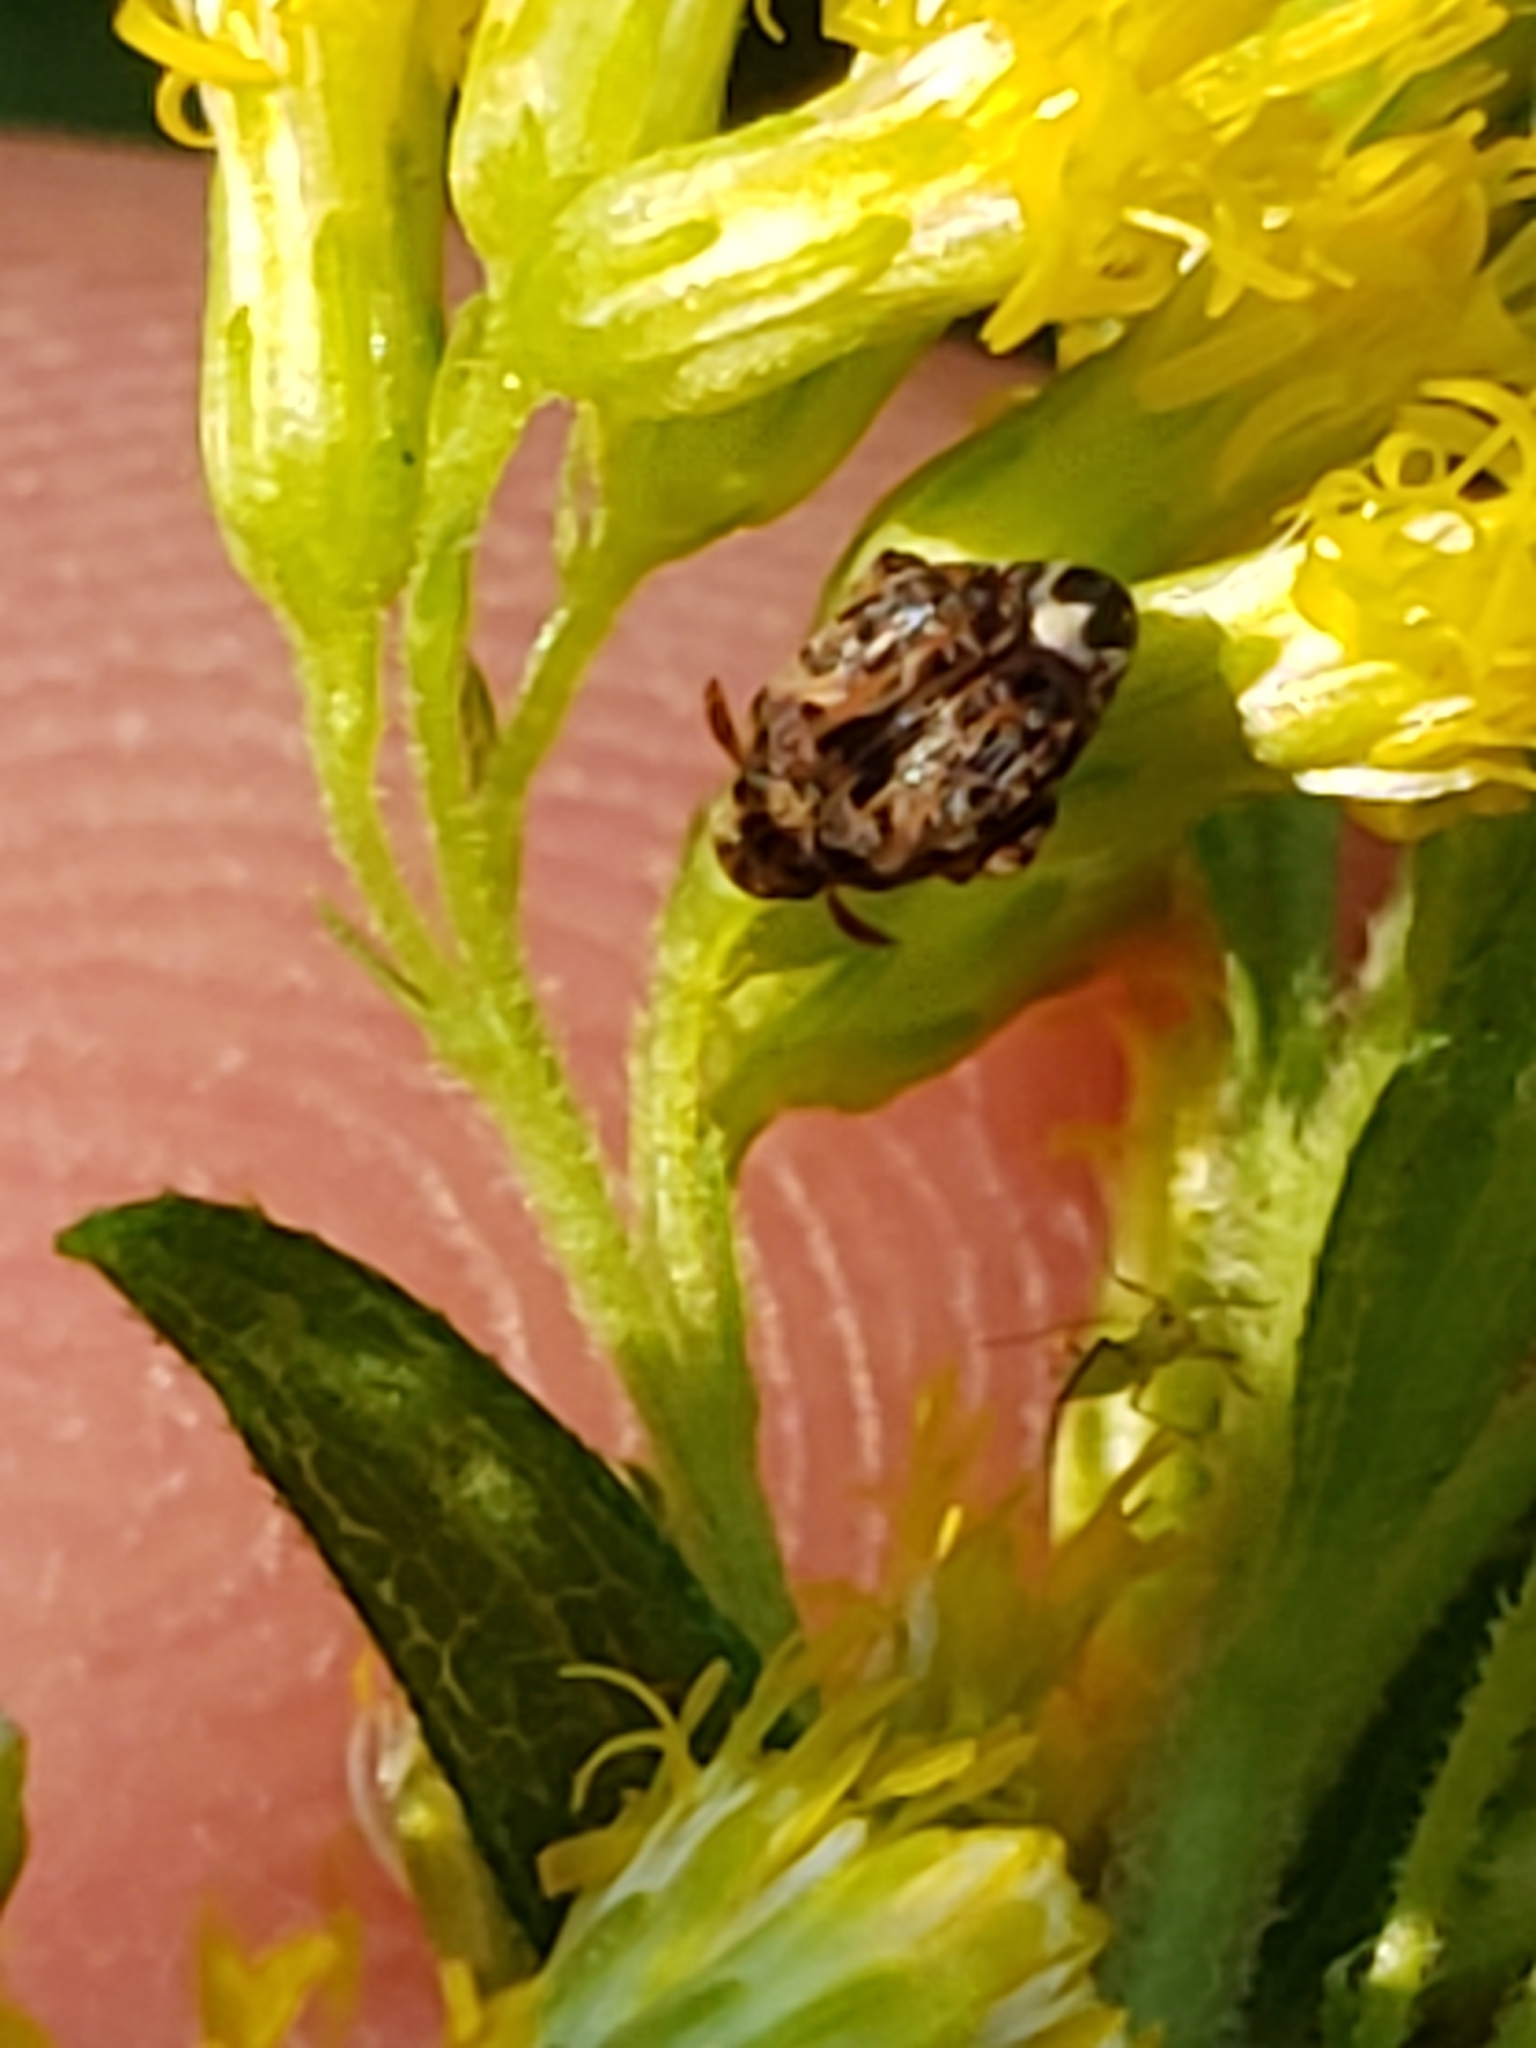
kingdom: Animalia
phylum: Arthropoda
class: Insecta
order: Coleoptera
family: Chrysomelidae
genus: Gibbobruchus
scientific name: Gibbobruchus mimus
